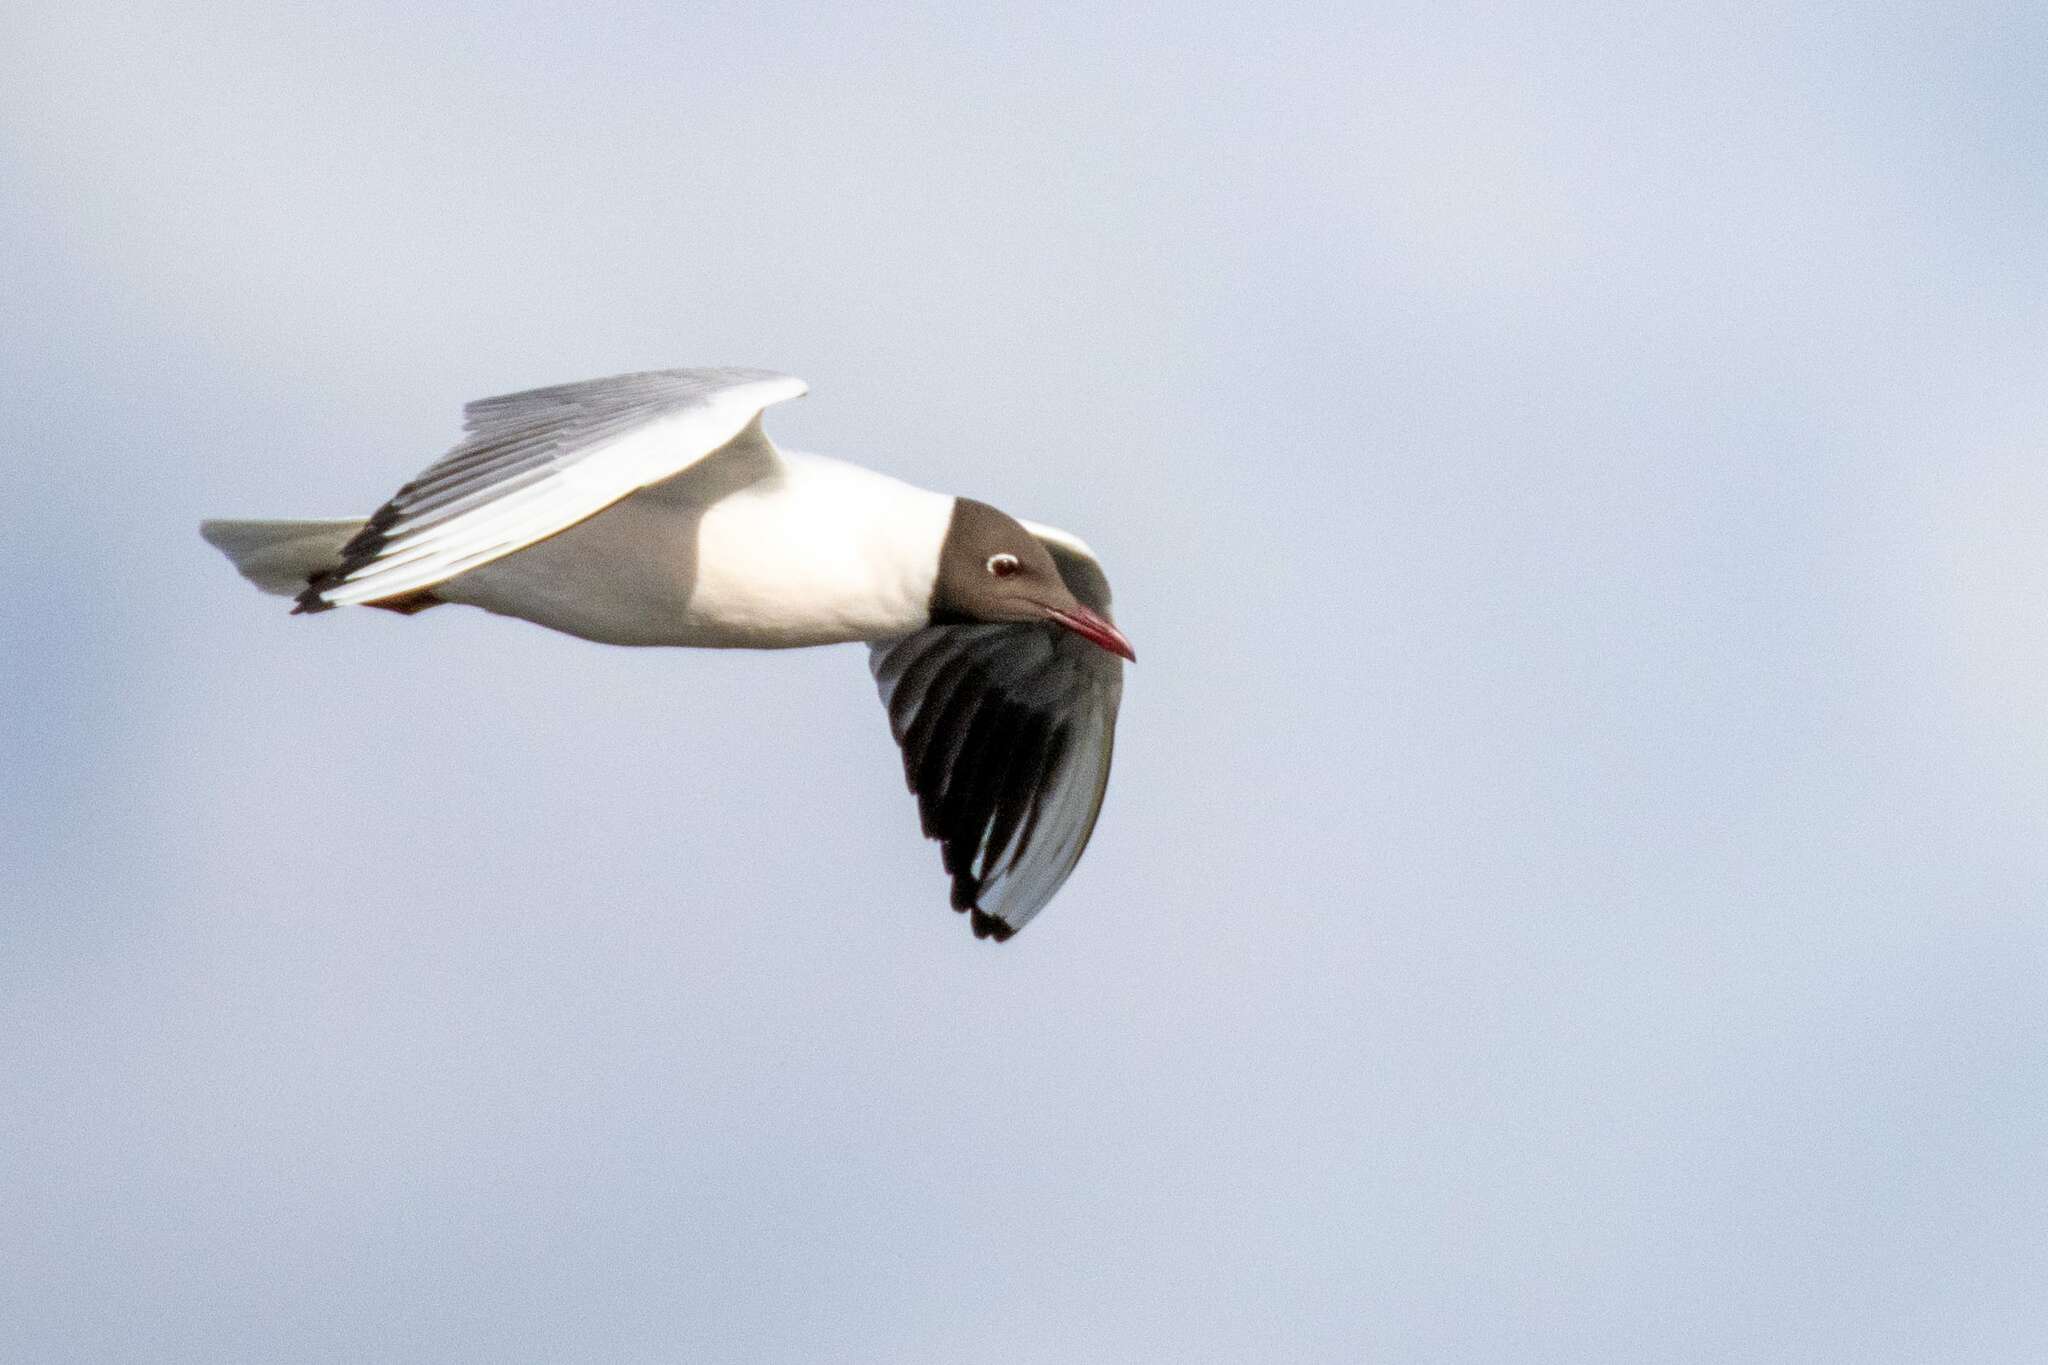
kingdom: Animalia
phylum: Chordata
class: Aves
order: Charadriiformes
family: Laridae
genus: Chroicocephalus
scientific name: Chroicocephalus ridibundus
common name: Black-headed gull
